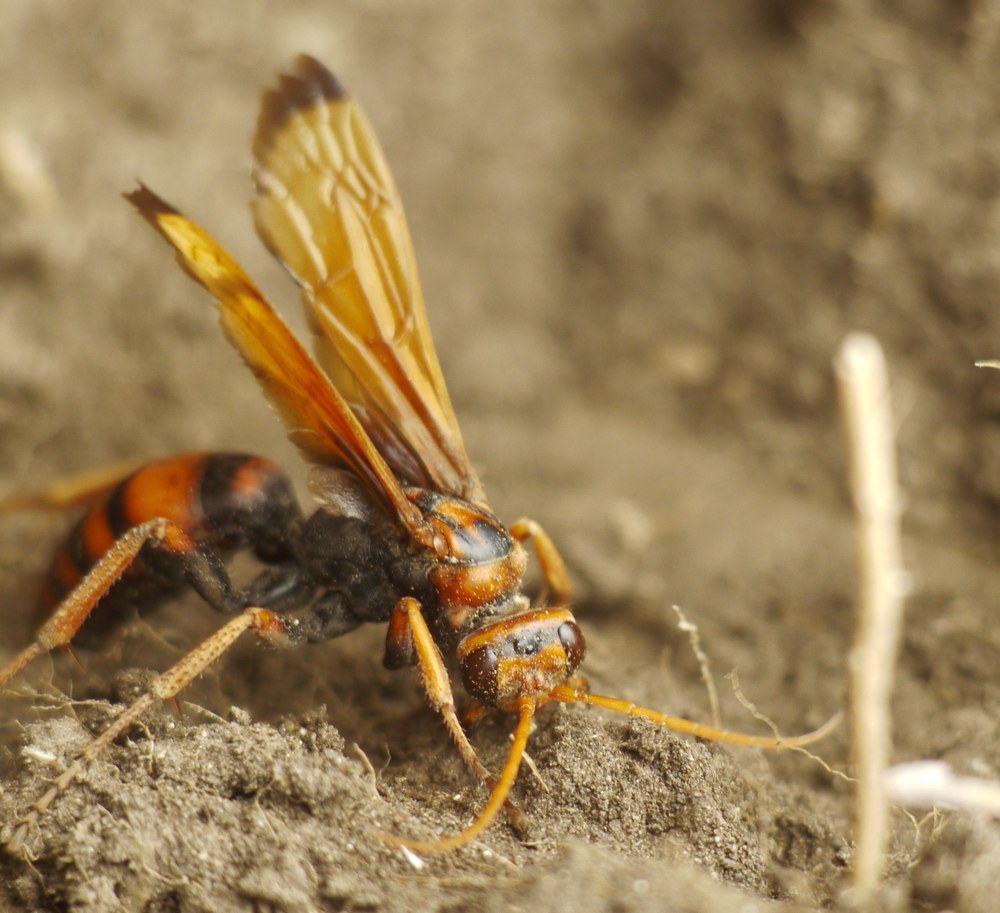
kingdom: Animalia
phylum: Arthropoda
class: Insecta
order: Hymenoptera
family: Pompilidae
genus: Cryptocheilus
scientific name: Cryptocheilus rubellus
